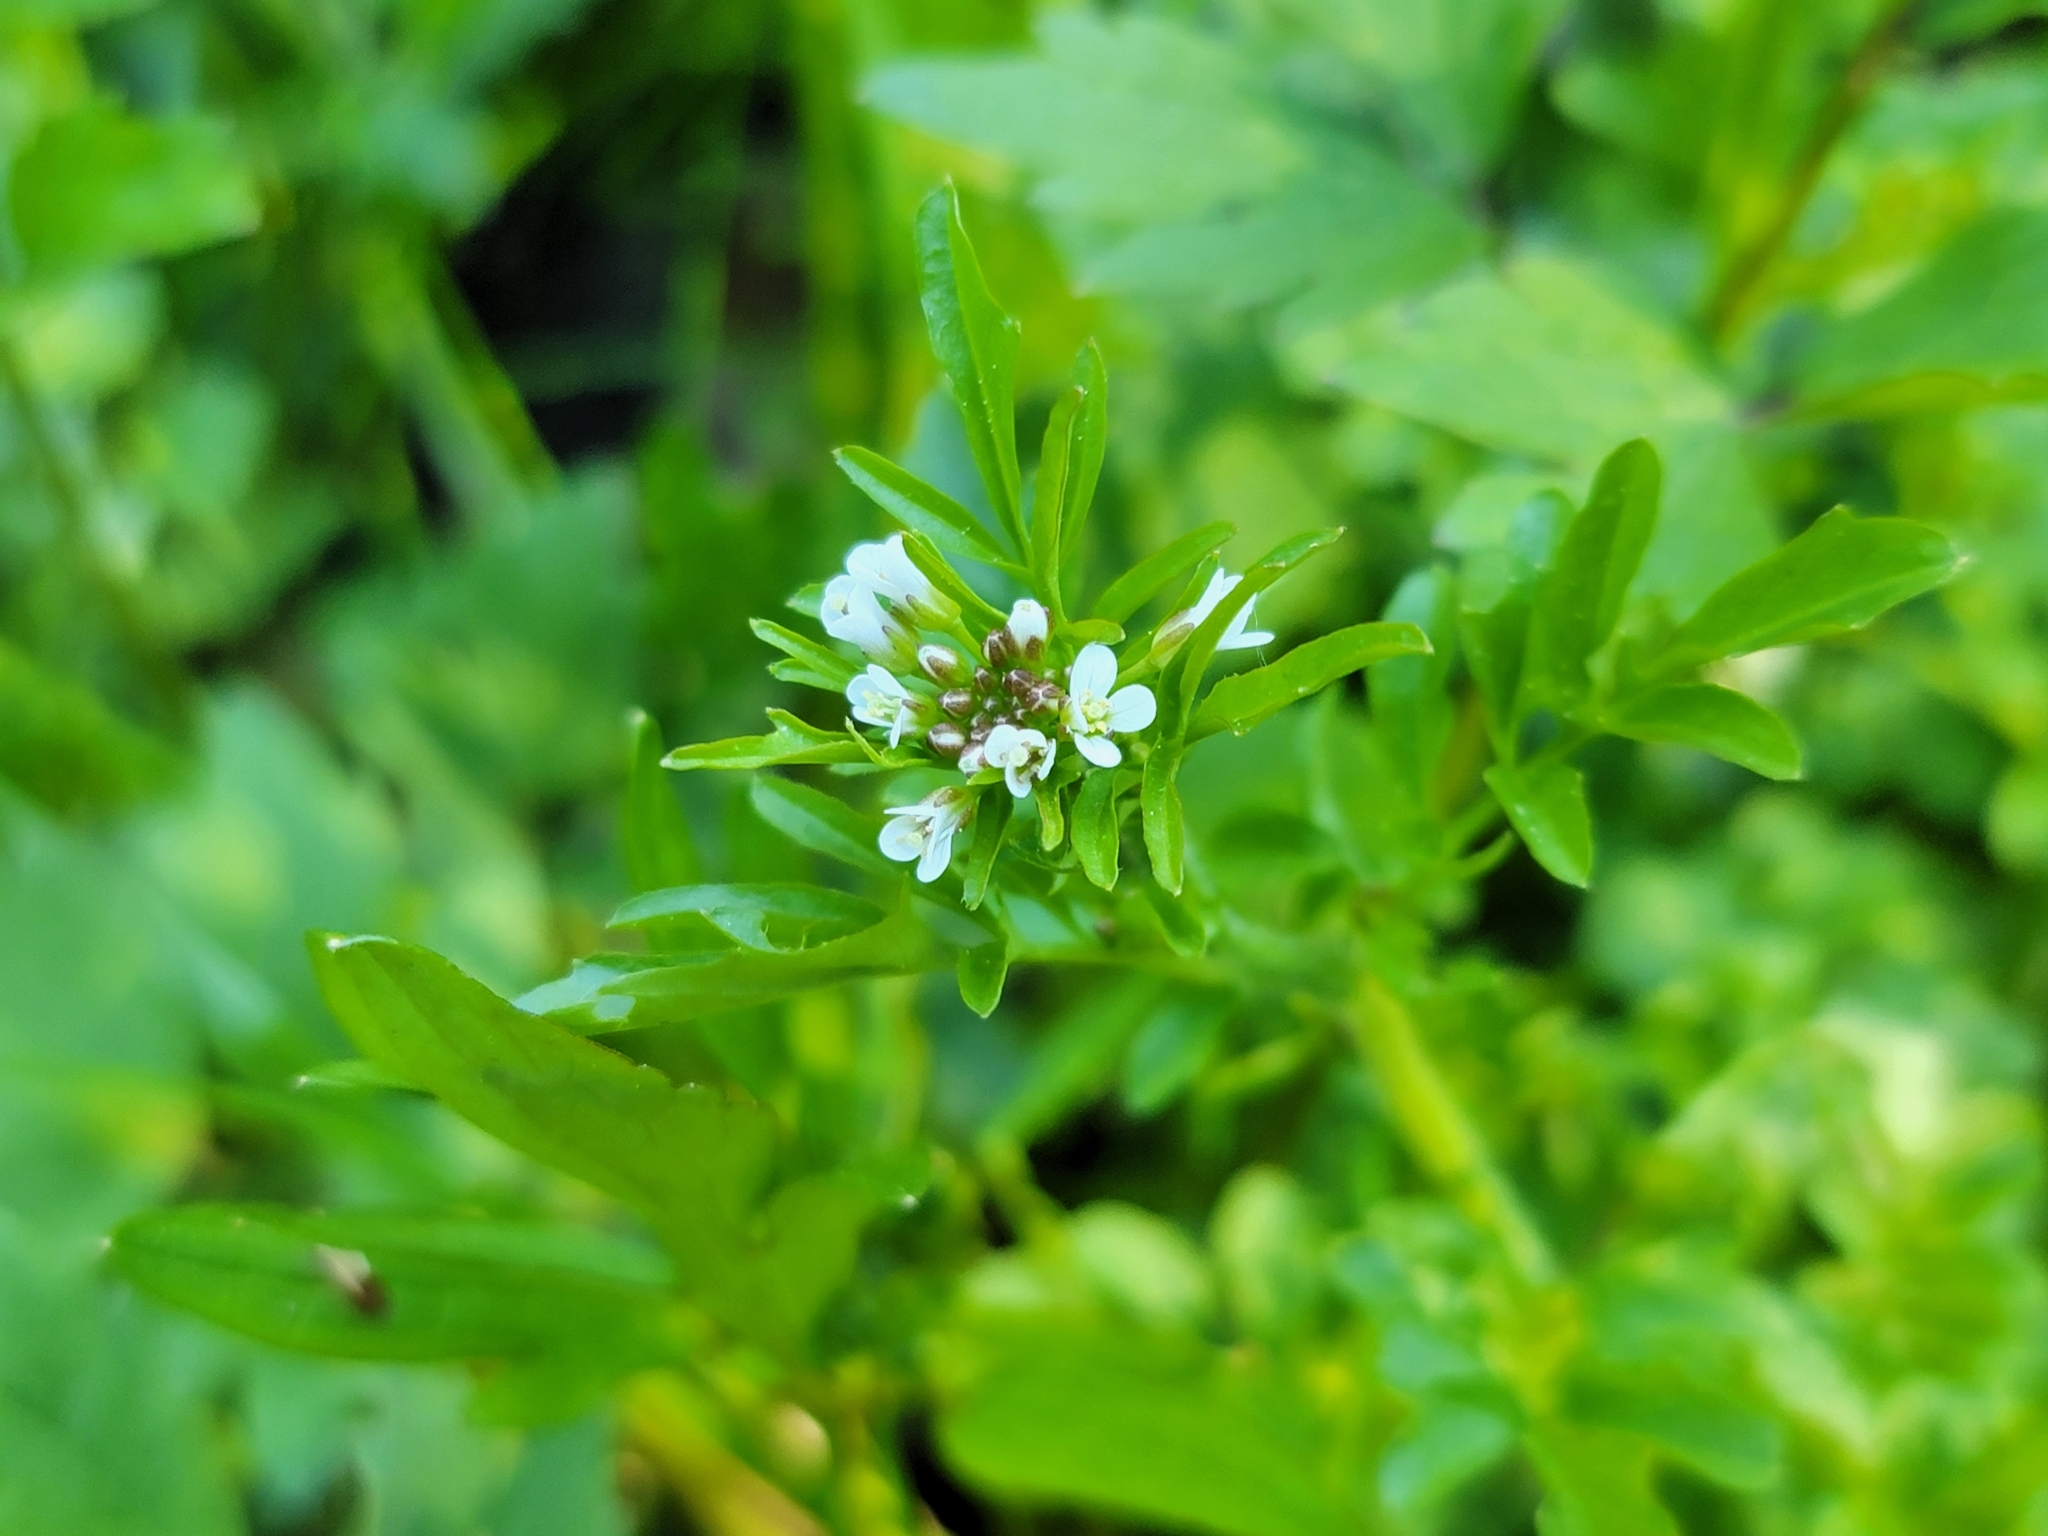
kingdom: Plantae
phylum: Tracheophyta
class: Magnoliopsida
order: Brassicales
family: Brassicaceae
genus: Cardamine
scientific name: Cardamine flexuosa
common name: Woodland bittercress
